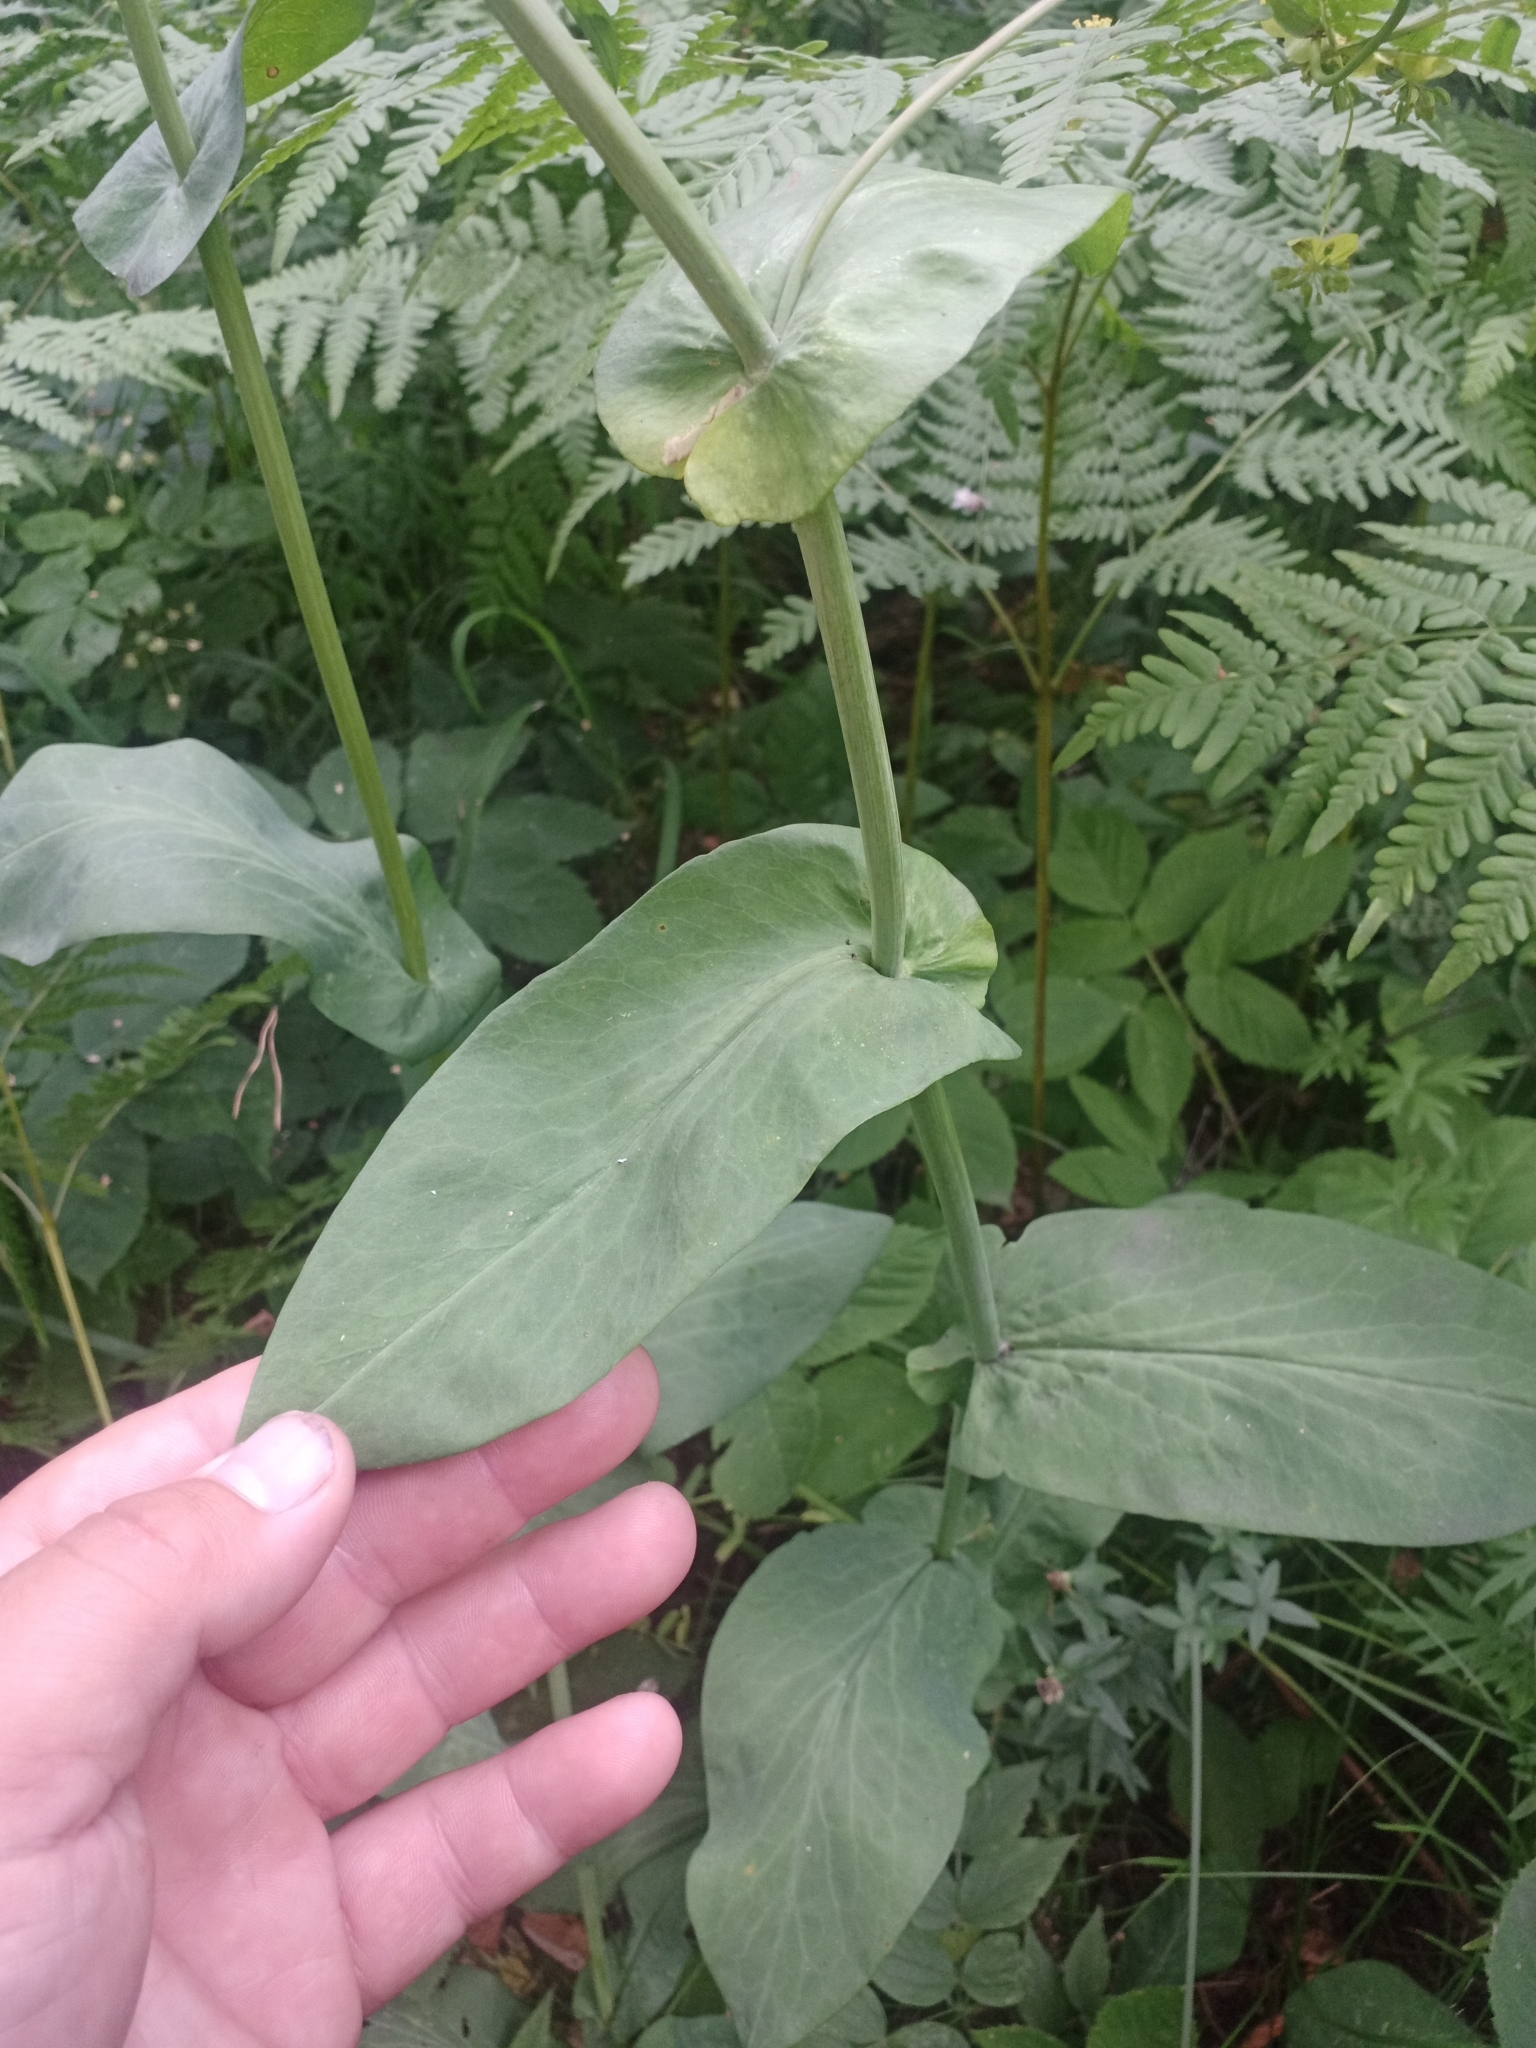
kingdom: Plantae
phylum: Tracheophyta
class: Magnoliopsida
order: Apiales
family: Apiaceae
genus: Bupleurum
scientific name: Bupleurum aureum
